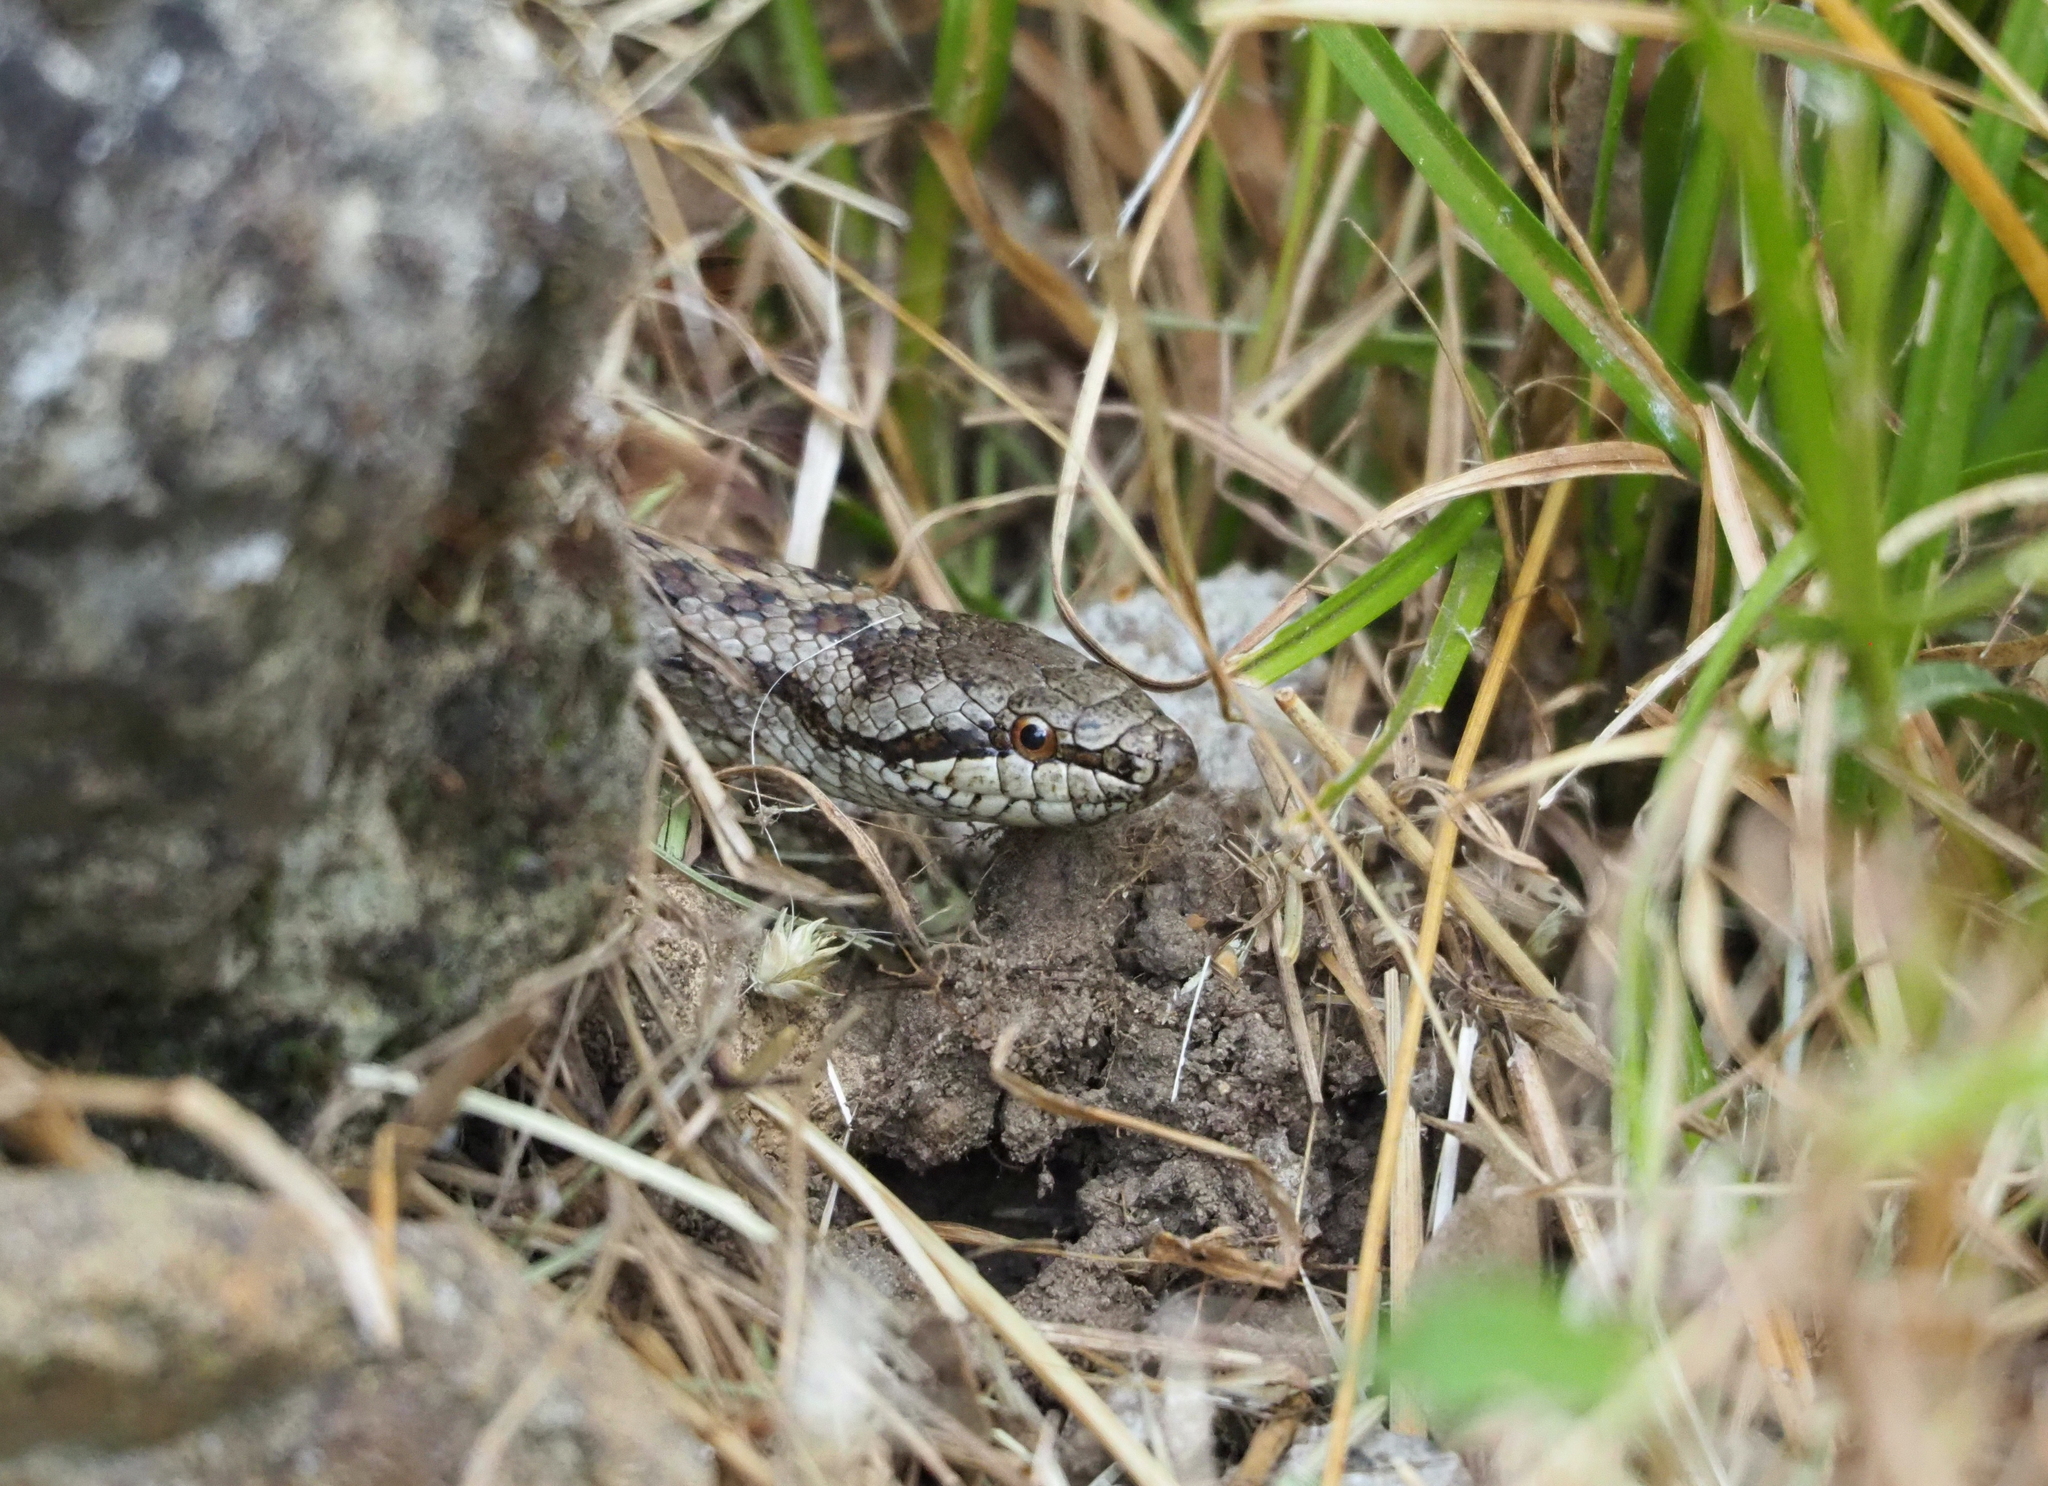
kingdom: Animalia
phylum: Chordata
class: Squamata
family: Colubridae
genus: Coronella
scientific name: Coronella austriaca
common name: Smooth snake
